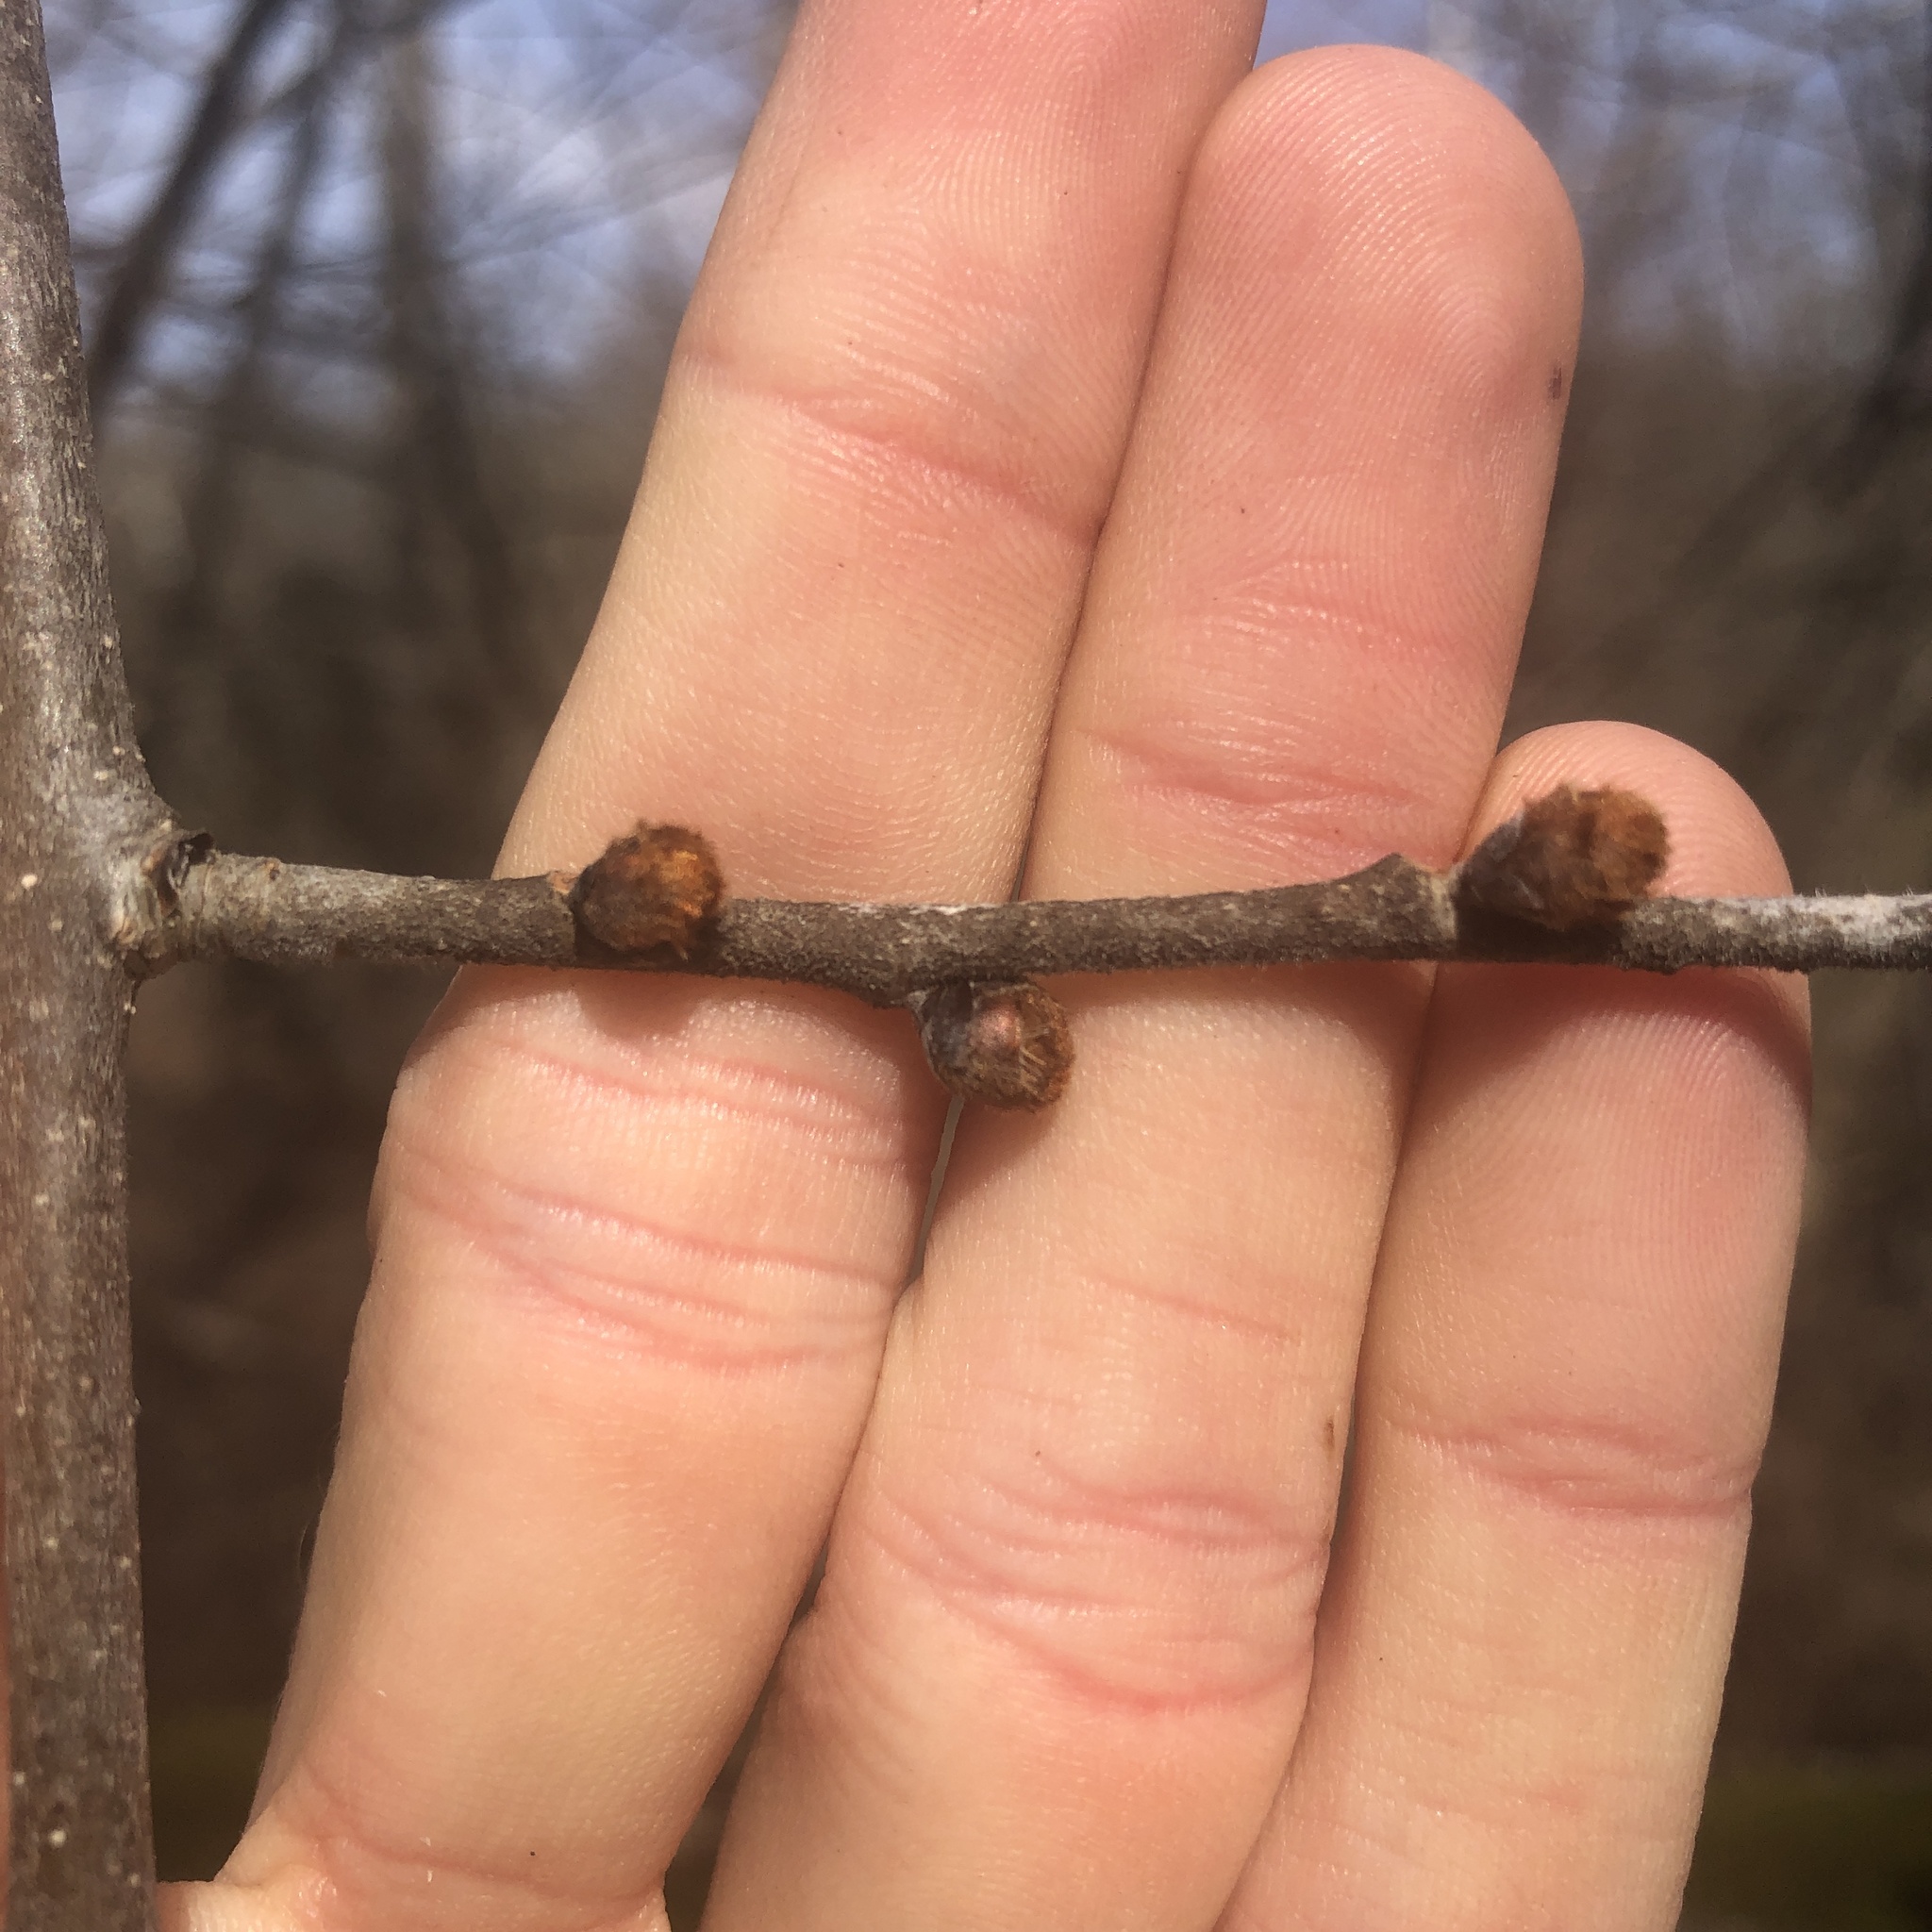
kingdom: Plantae
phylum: Tracheophyta
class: Magnoliopsida
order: Rosales
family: Ulmaceae
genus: Ulmus
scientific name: Ulmus rubra
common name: Slippery elm
